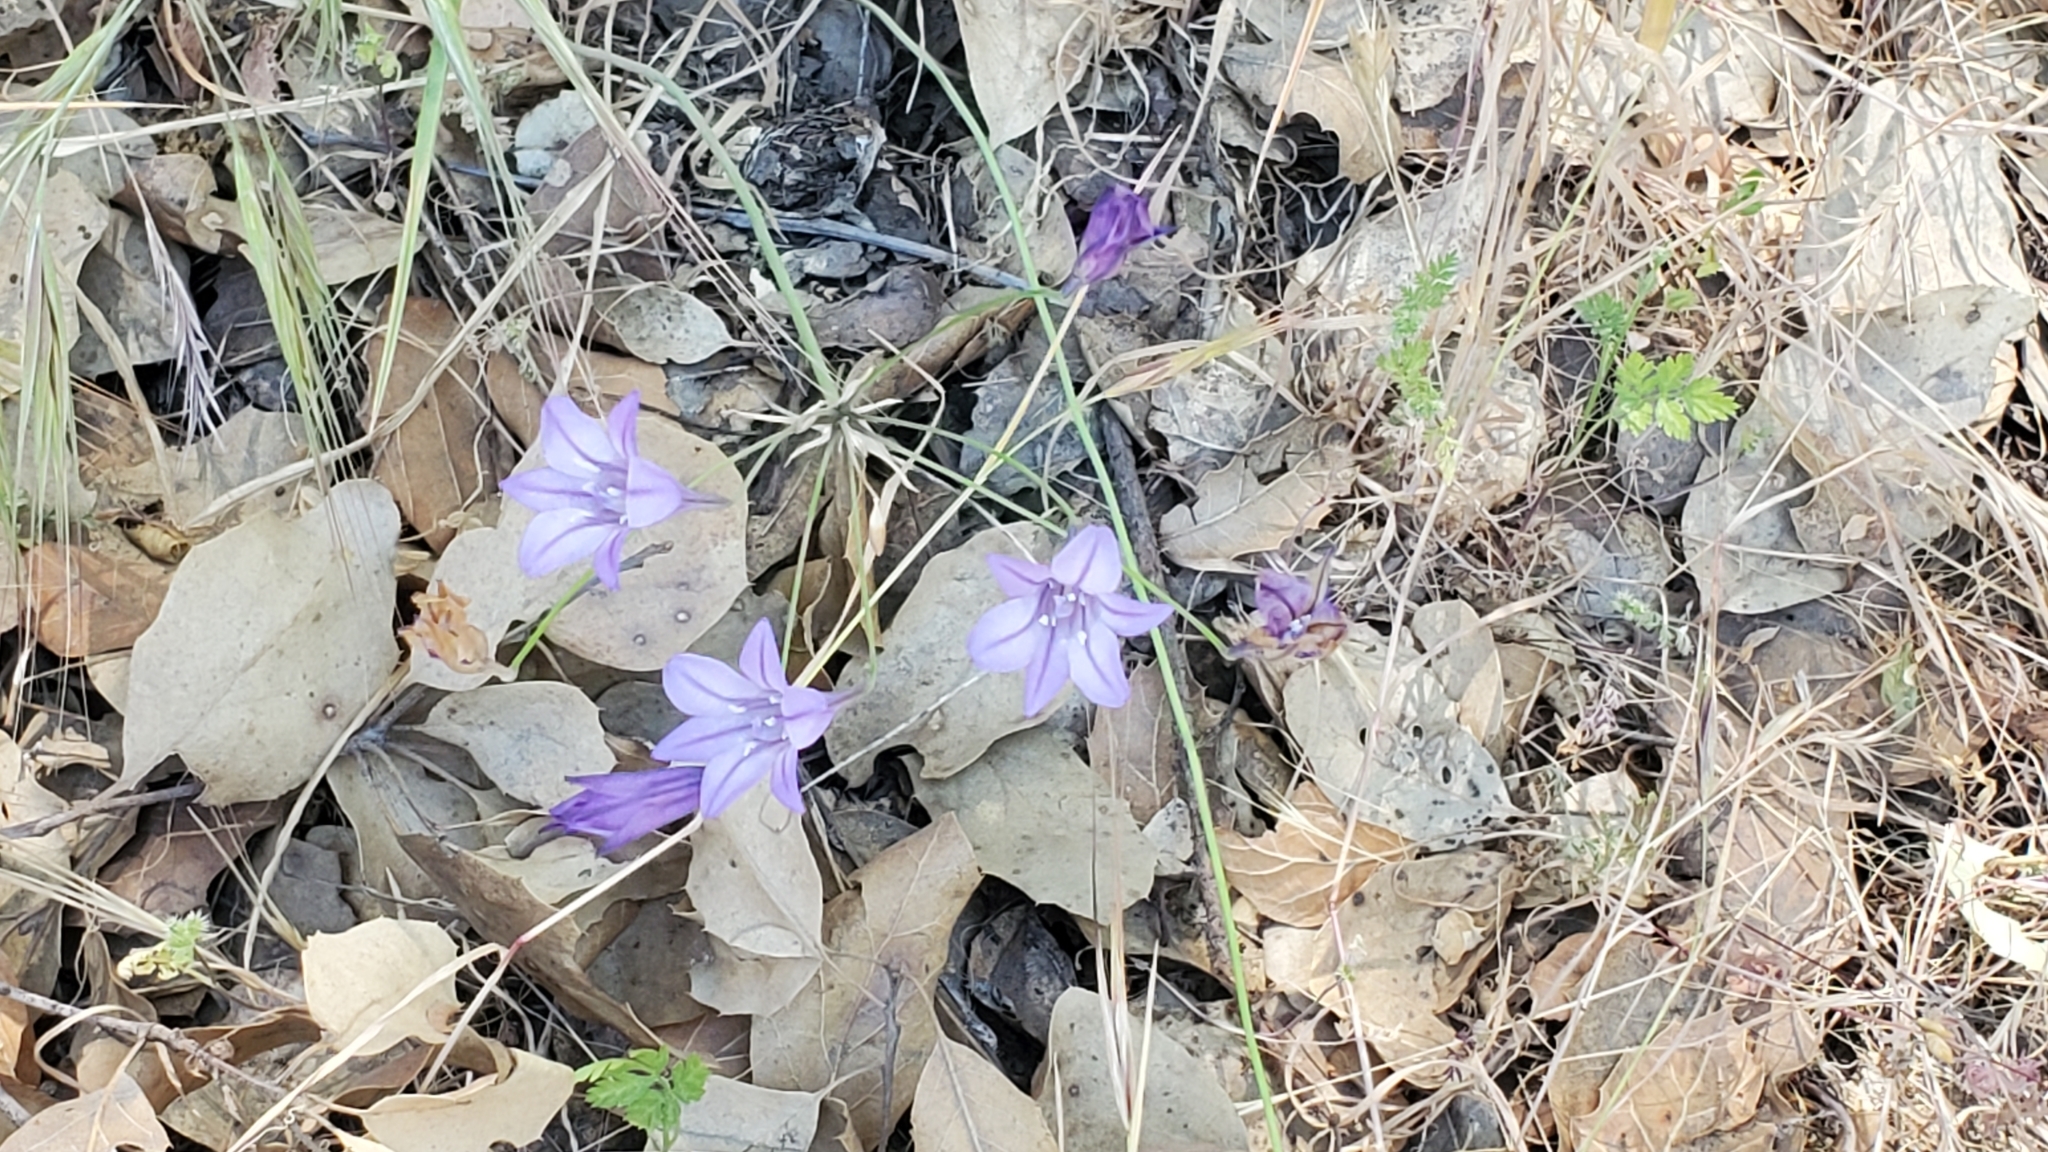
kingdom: Plantae
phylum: Tracheophyta
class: Liliopsida
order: Asparagales
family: Asparagaceae
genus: Triteleia
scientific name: Triteleia laxa
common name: Triplet-lily
